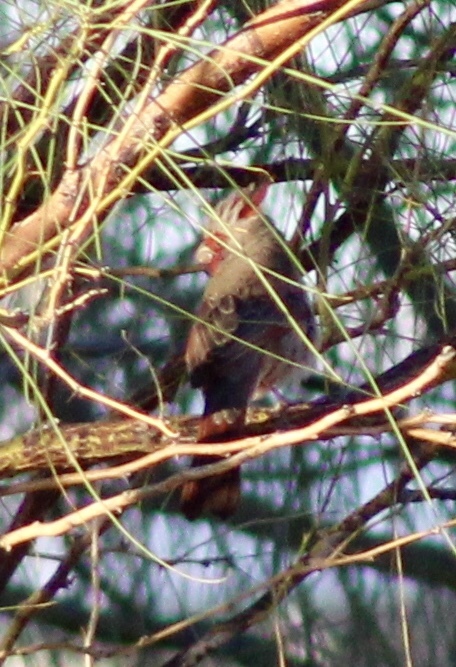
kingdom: Animalia
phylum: Chordata
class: Aves
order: Passeriformes
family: Cardinalidae
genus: Cardinalis
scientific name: Cardinalis sinuatus
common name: Pyrrhuloxia
